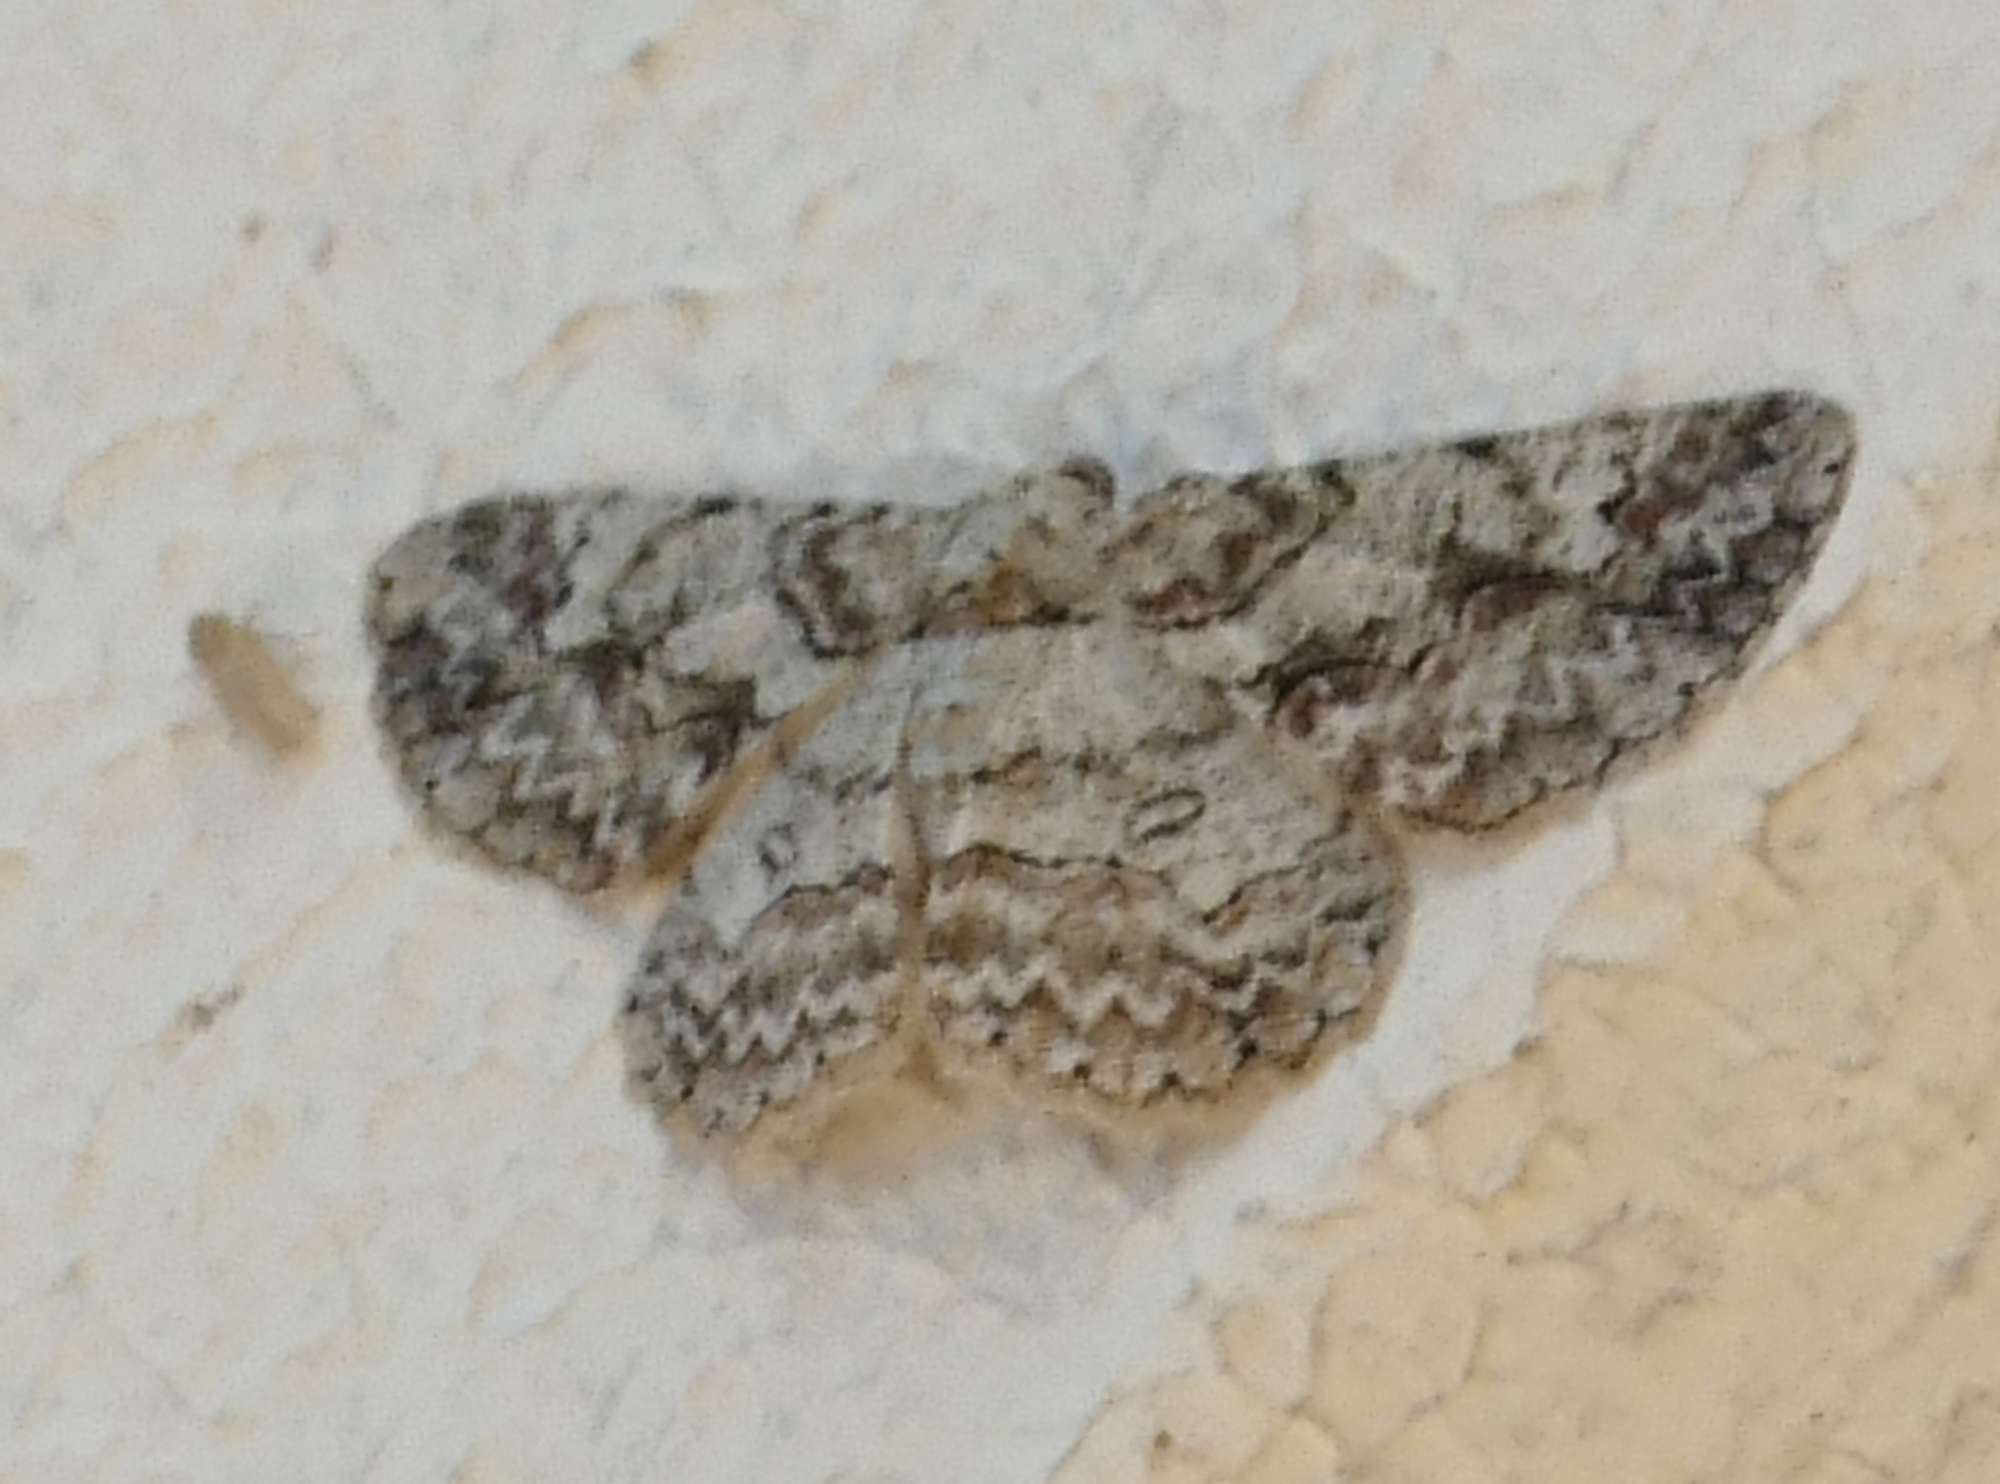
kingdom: Animalia
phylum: Arthropoda
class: Insecta
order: Lepidoptera
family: Geometridae
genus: Iridopsis
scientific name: Iridopsis defectaria
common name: Brown-shaded gray
